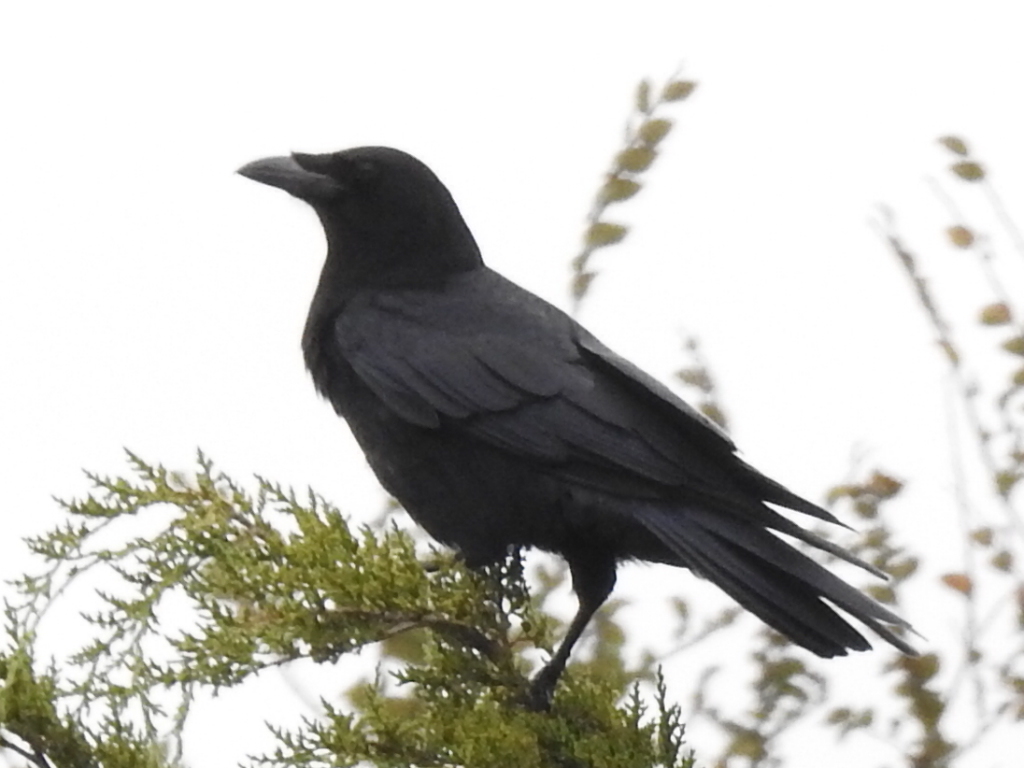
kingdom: Animalia
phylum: Chordata
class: Aves
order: Passeriformes
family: Corvidae
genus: Corvus
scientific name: Corvus brachyrhynchos
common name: American crow
